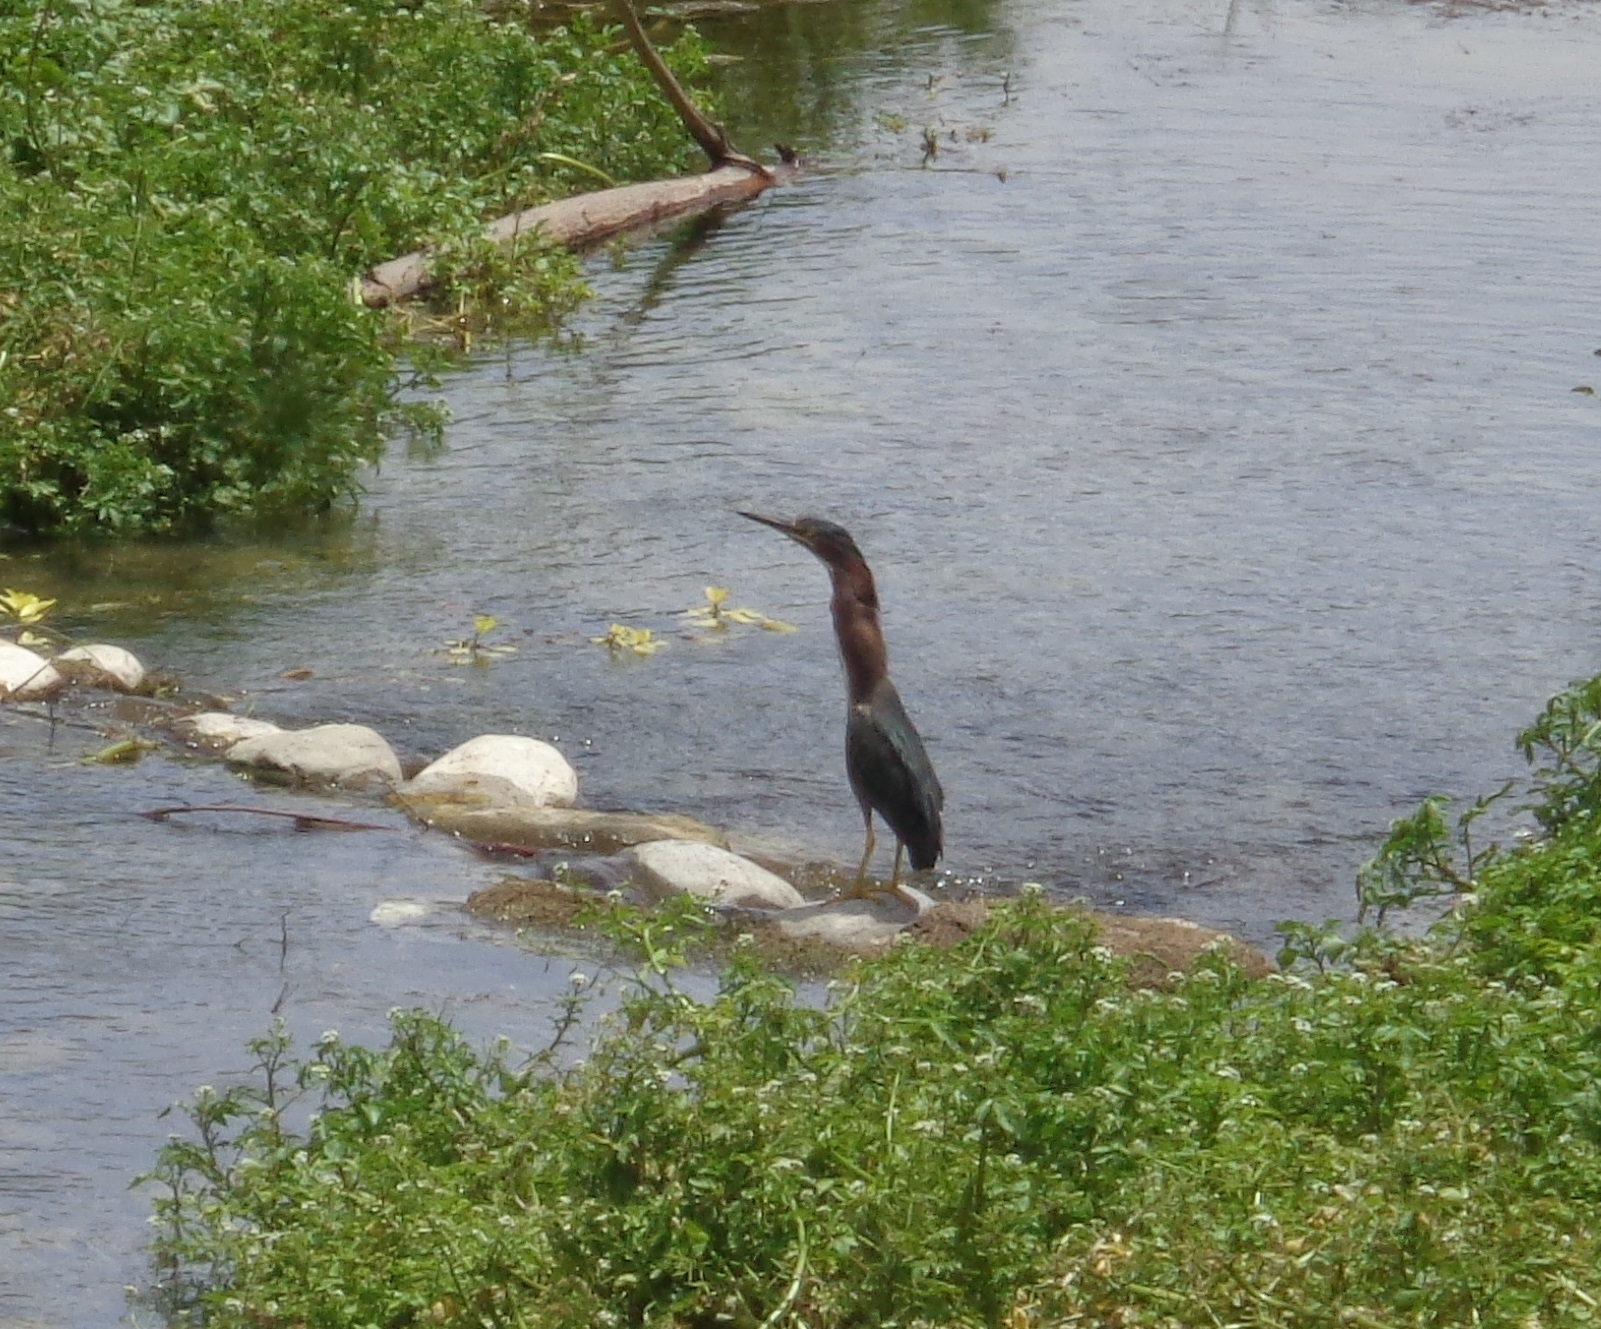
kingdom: Animalia
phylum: Chordata
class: Aves
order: Pelecaniformes
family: Ardeidae
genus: Butorides
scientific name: Butorides virescens
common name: Green heron
